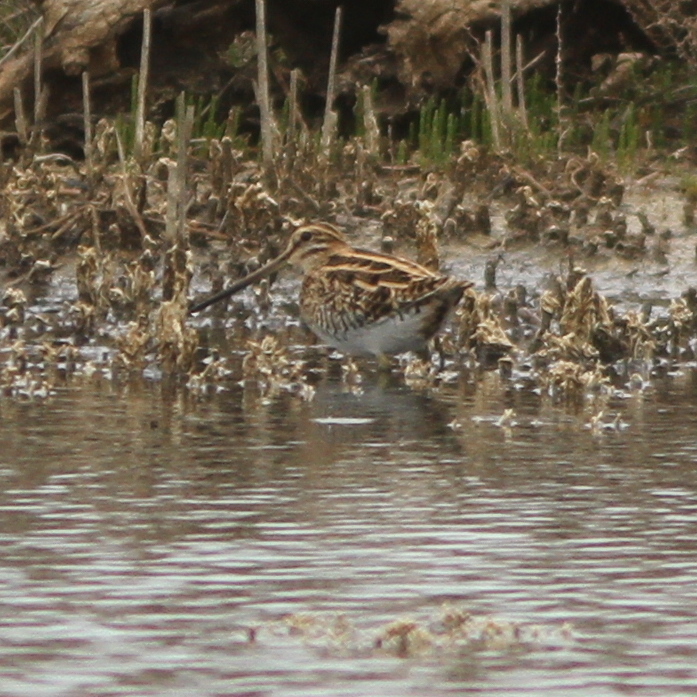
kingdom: Animalia
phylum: Chordata
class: Aves
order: Charadriiformes
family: Scolopacidae
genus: Gallinago
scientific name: Gallinago gallinago
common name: Common snipe
